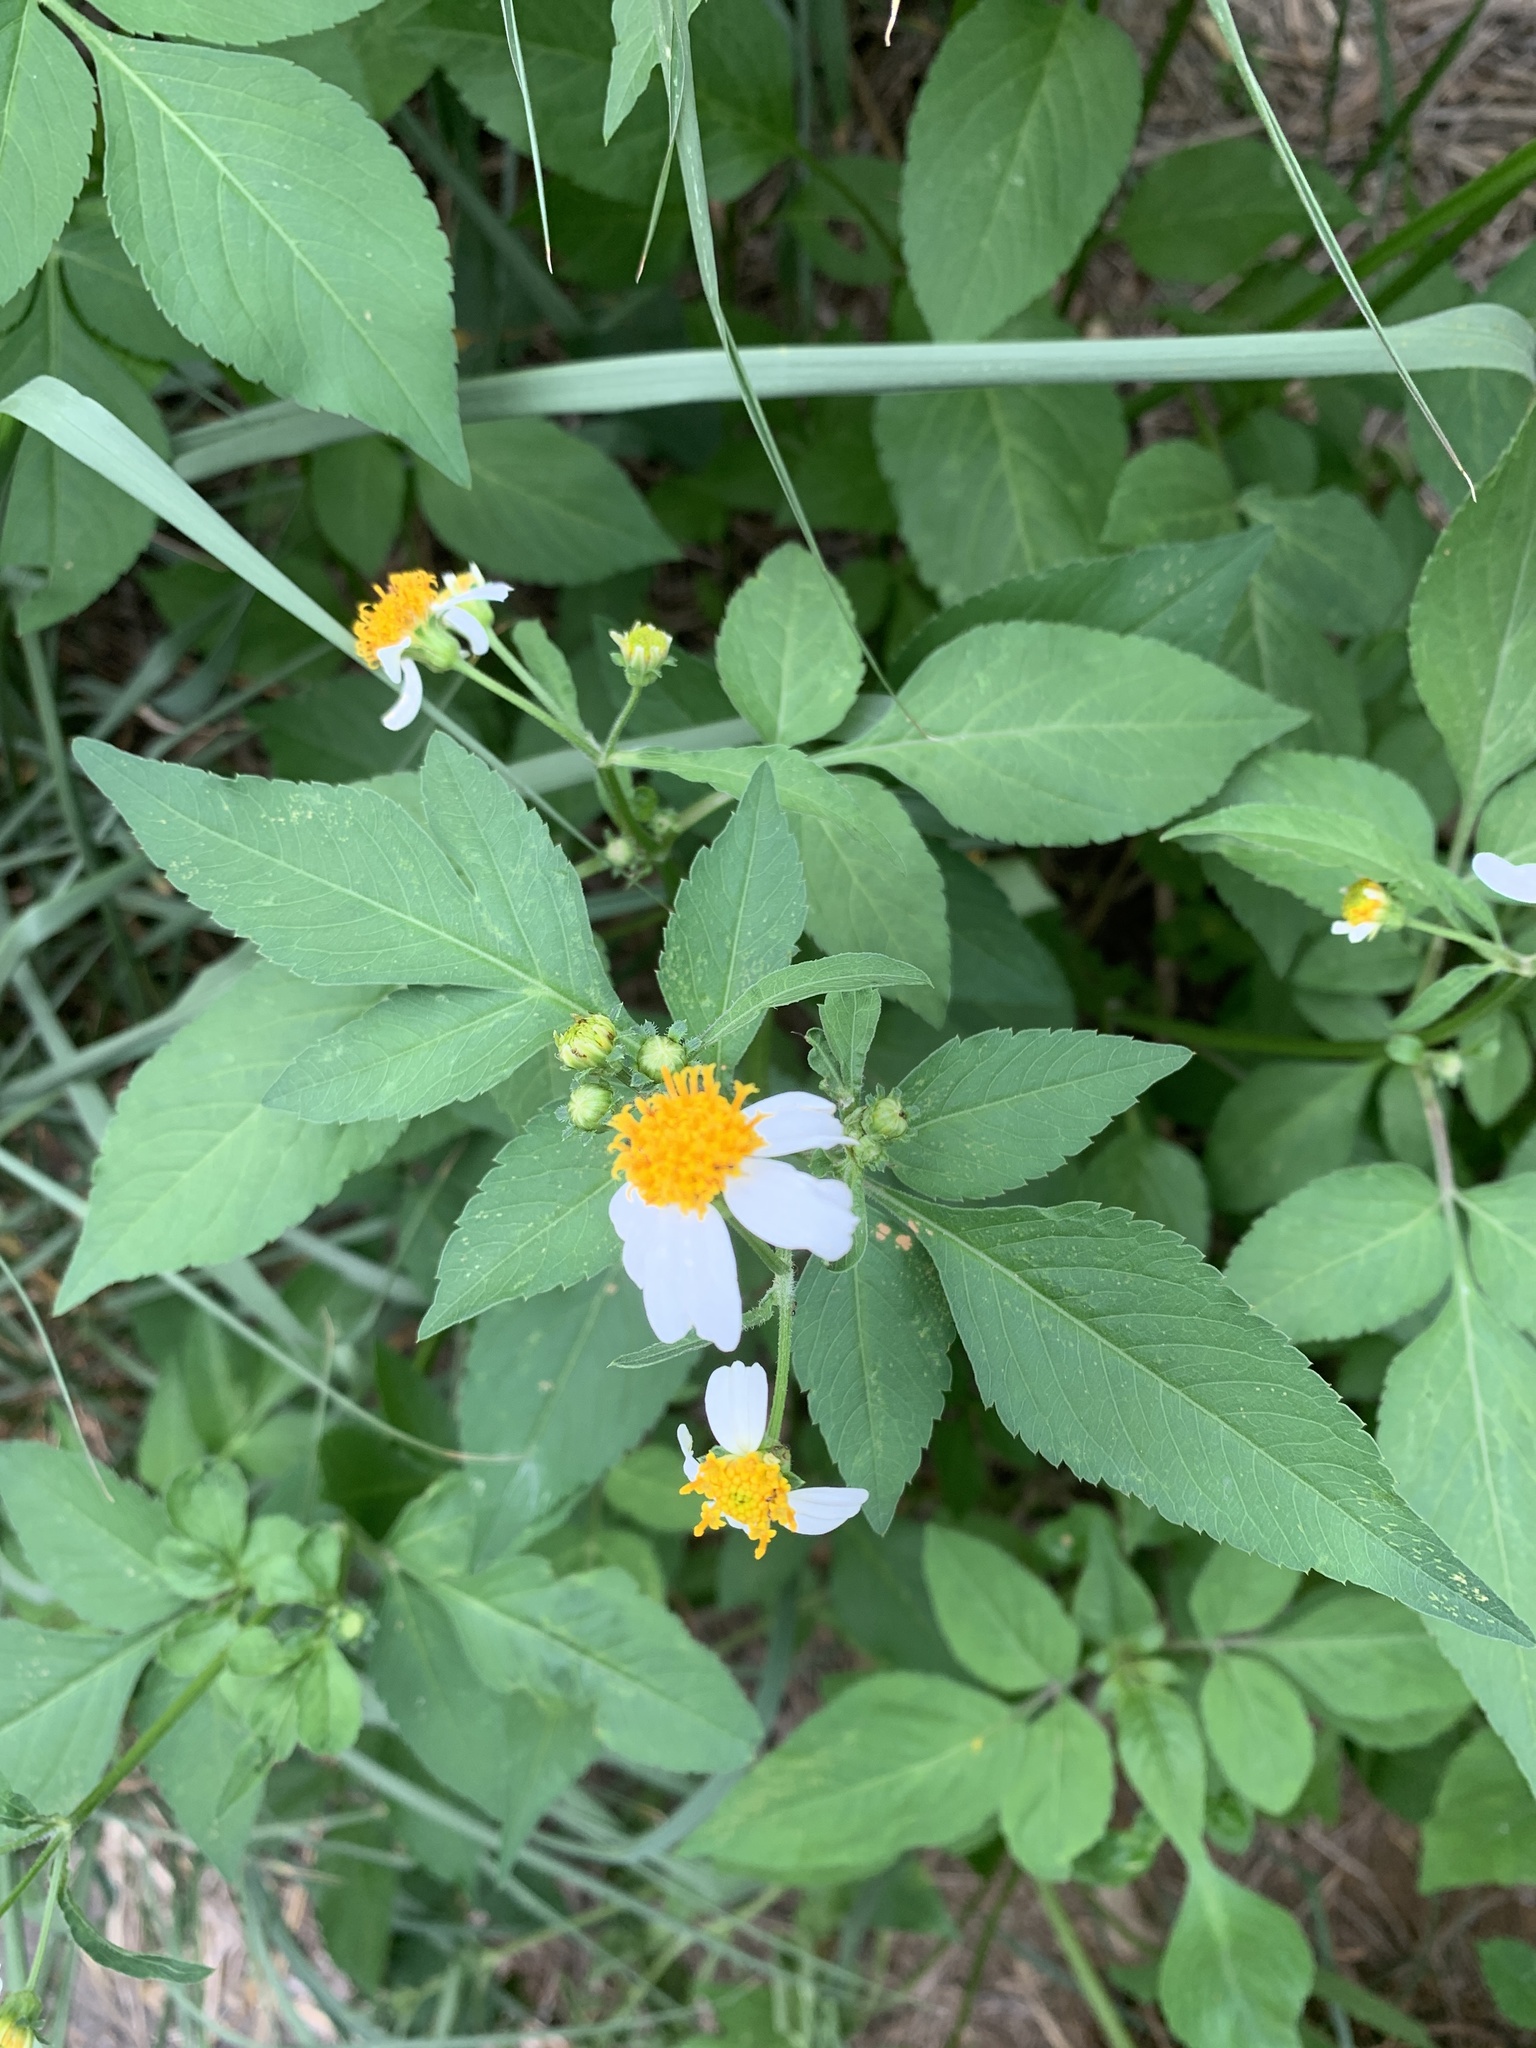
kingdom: Plantae
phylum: Tracheophyta
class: Magnoliopsida
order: Asterales
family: Asteraceae
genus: Bidens
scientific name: Bidens alba
